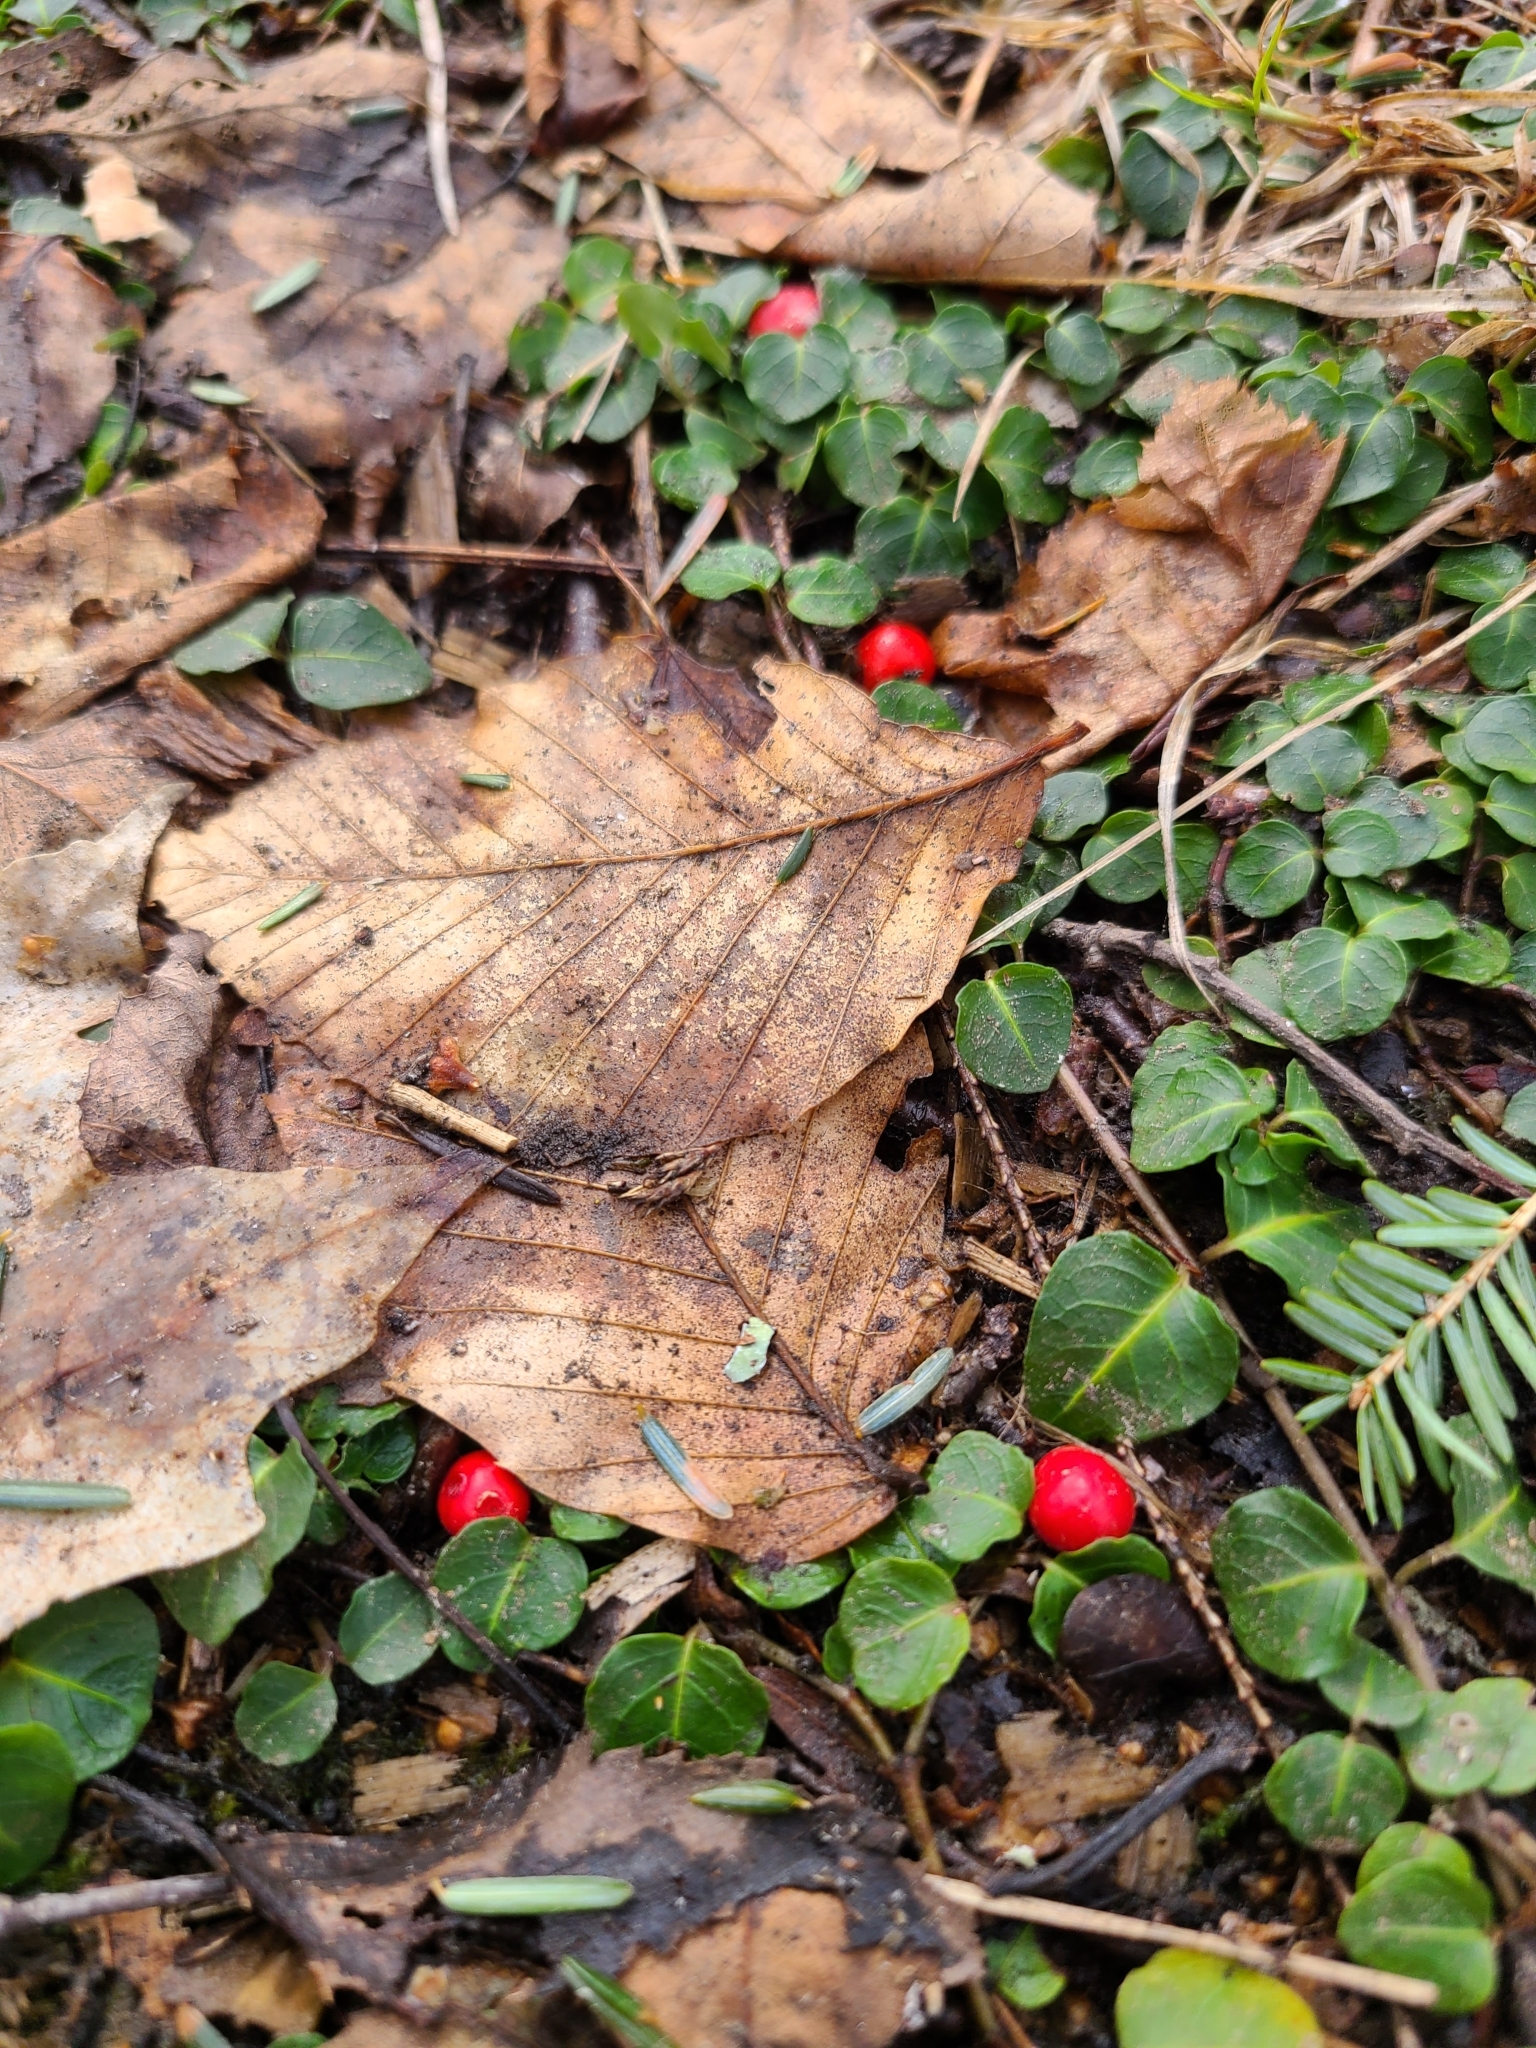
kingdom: Plantae
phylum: Tracheophyta
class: Magnoliopsida
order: Gentianales
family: Rubiaceae
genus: Mitchella
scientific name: Mitchella repens
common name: Partridge-berry
